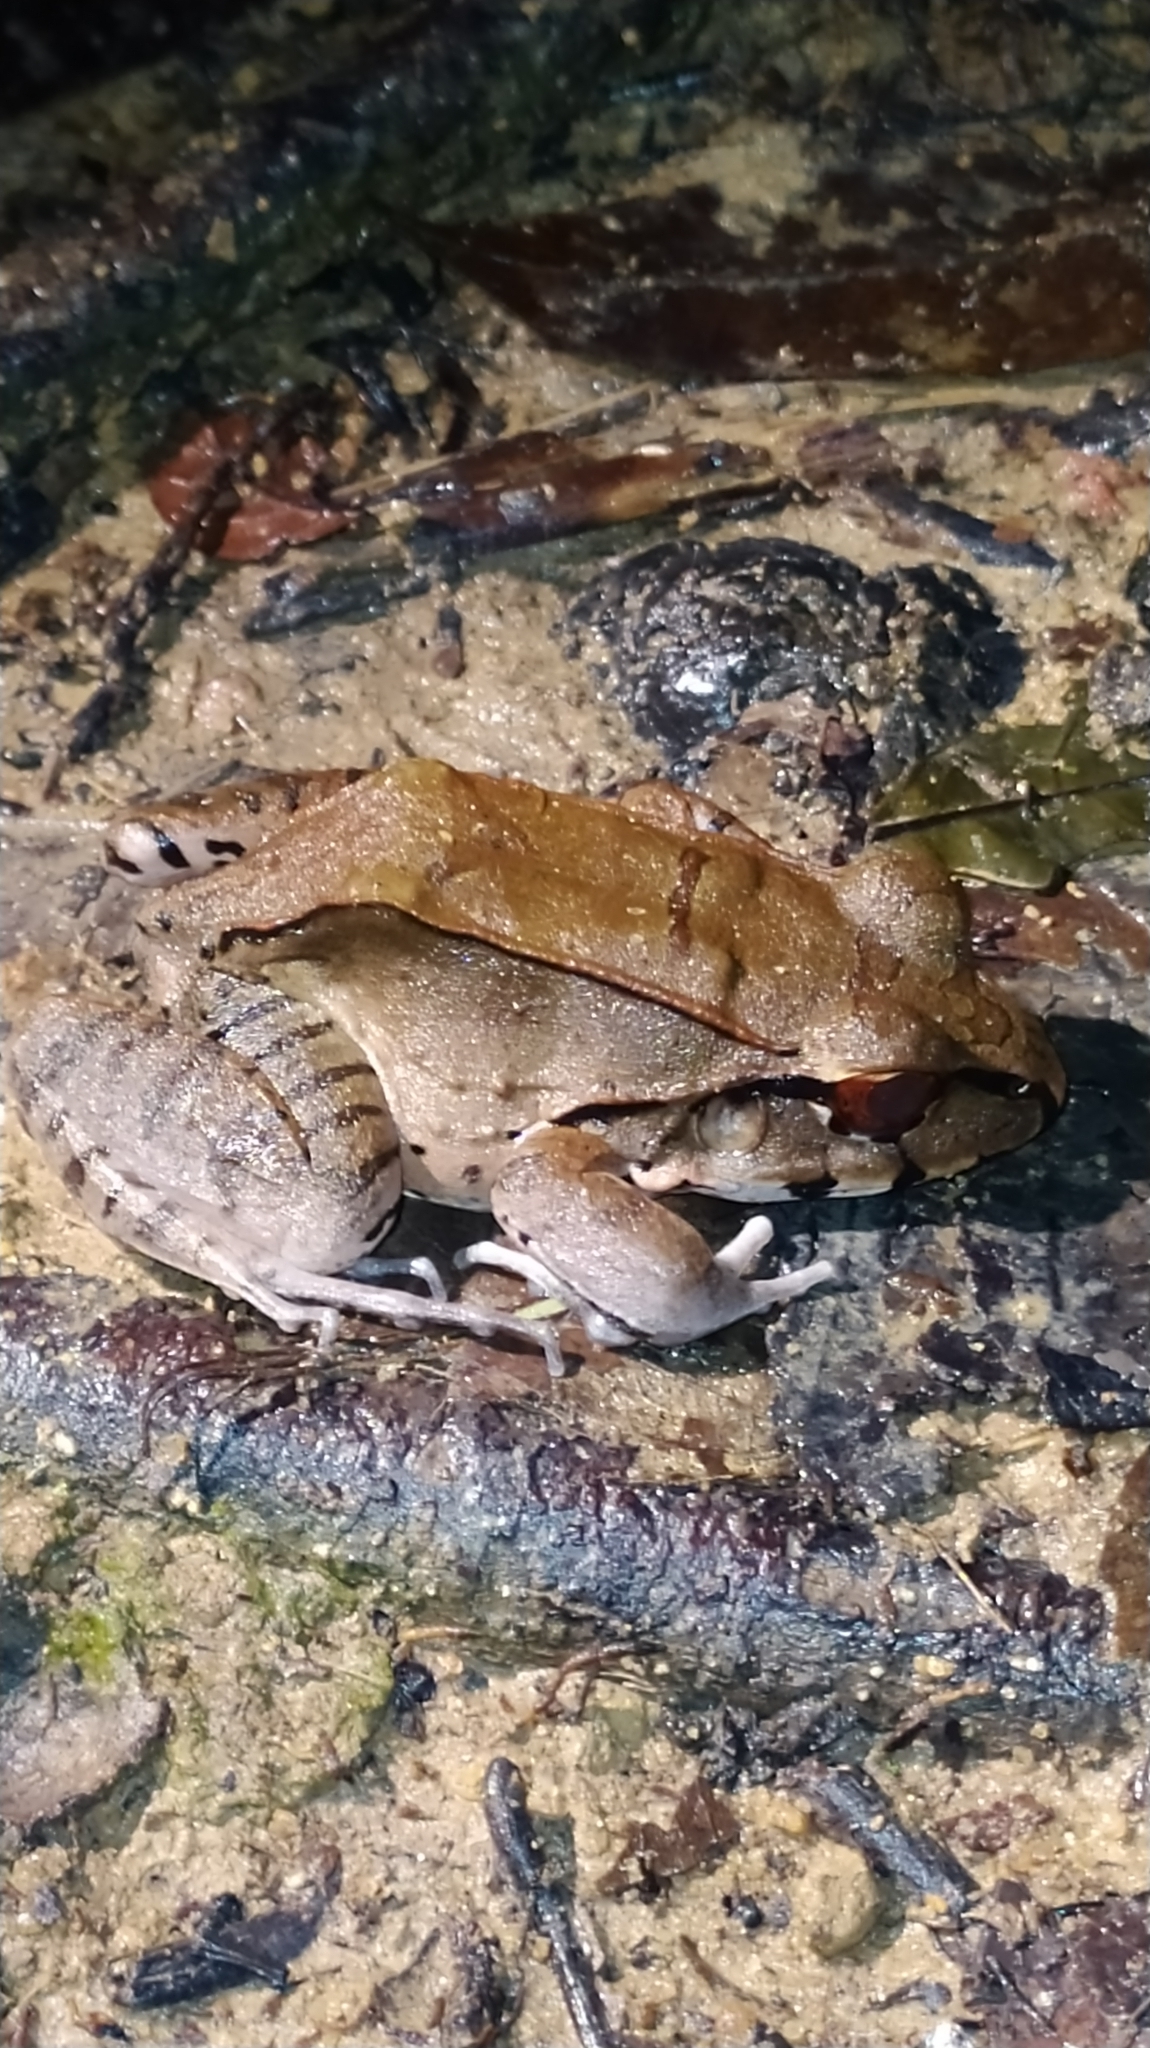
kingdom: Animalia
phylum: Chordata
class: Amphibia
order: Anura
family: Leptodactylidae
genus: Leptodactylus
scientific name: Leptodactylus pentadactylus
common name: Smoky jungle frog
